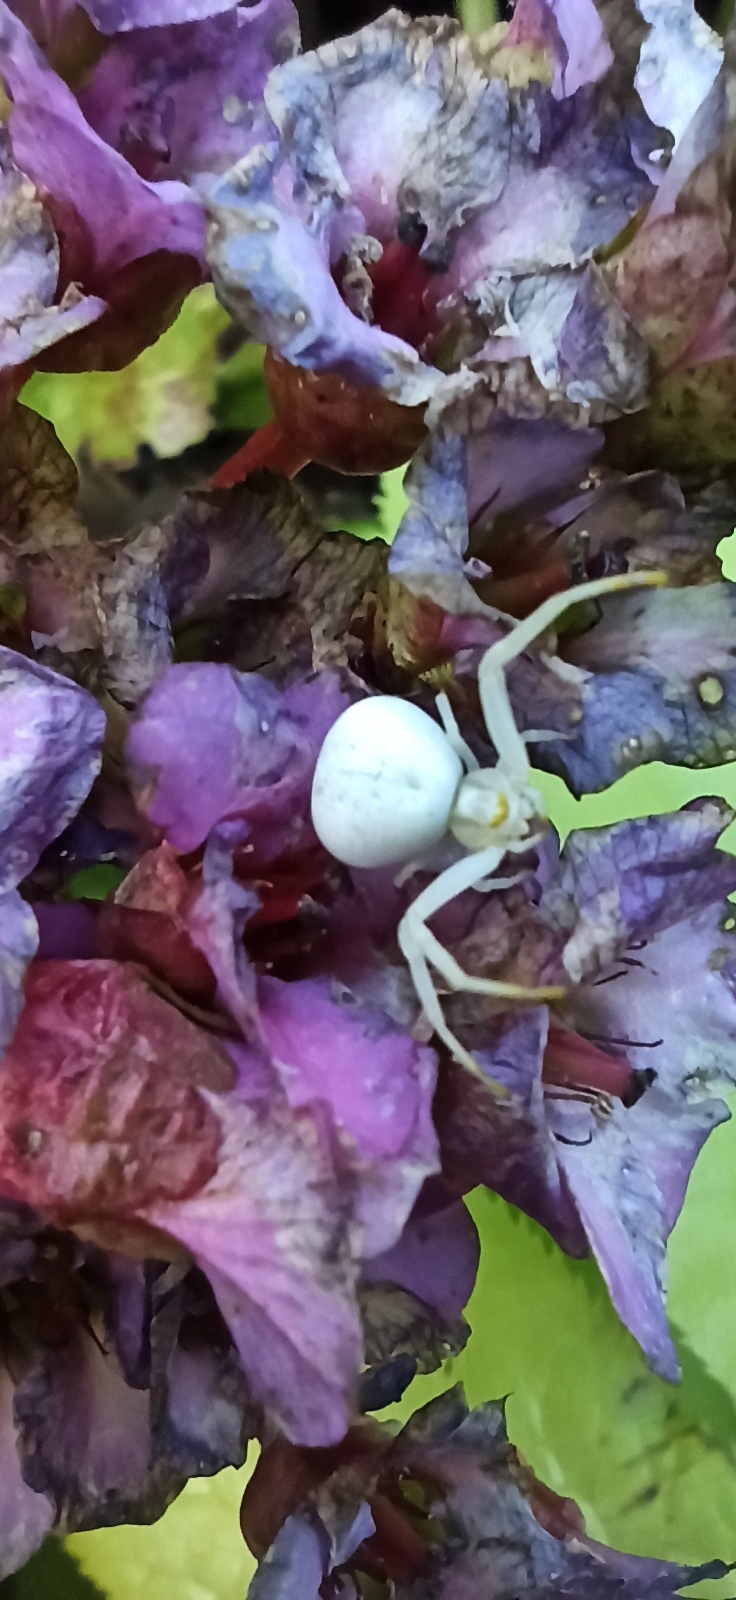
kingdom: Animalia
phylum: Arthropoda
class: Arachnida
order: Araneae
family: Thomisidae
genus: Misumena
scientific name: Misumena vatia
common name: Goldenrod crab spider
